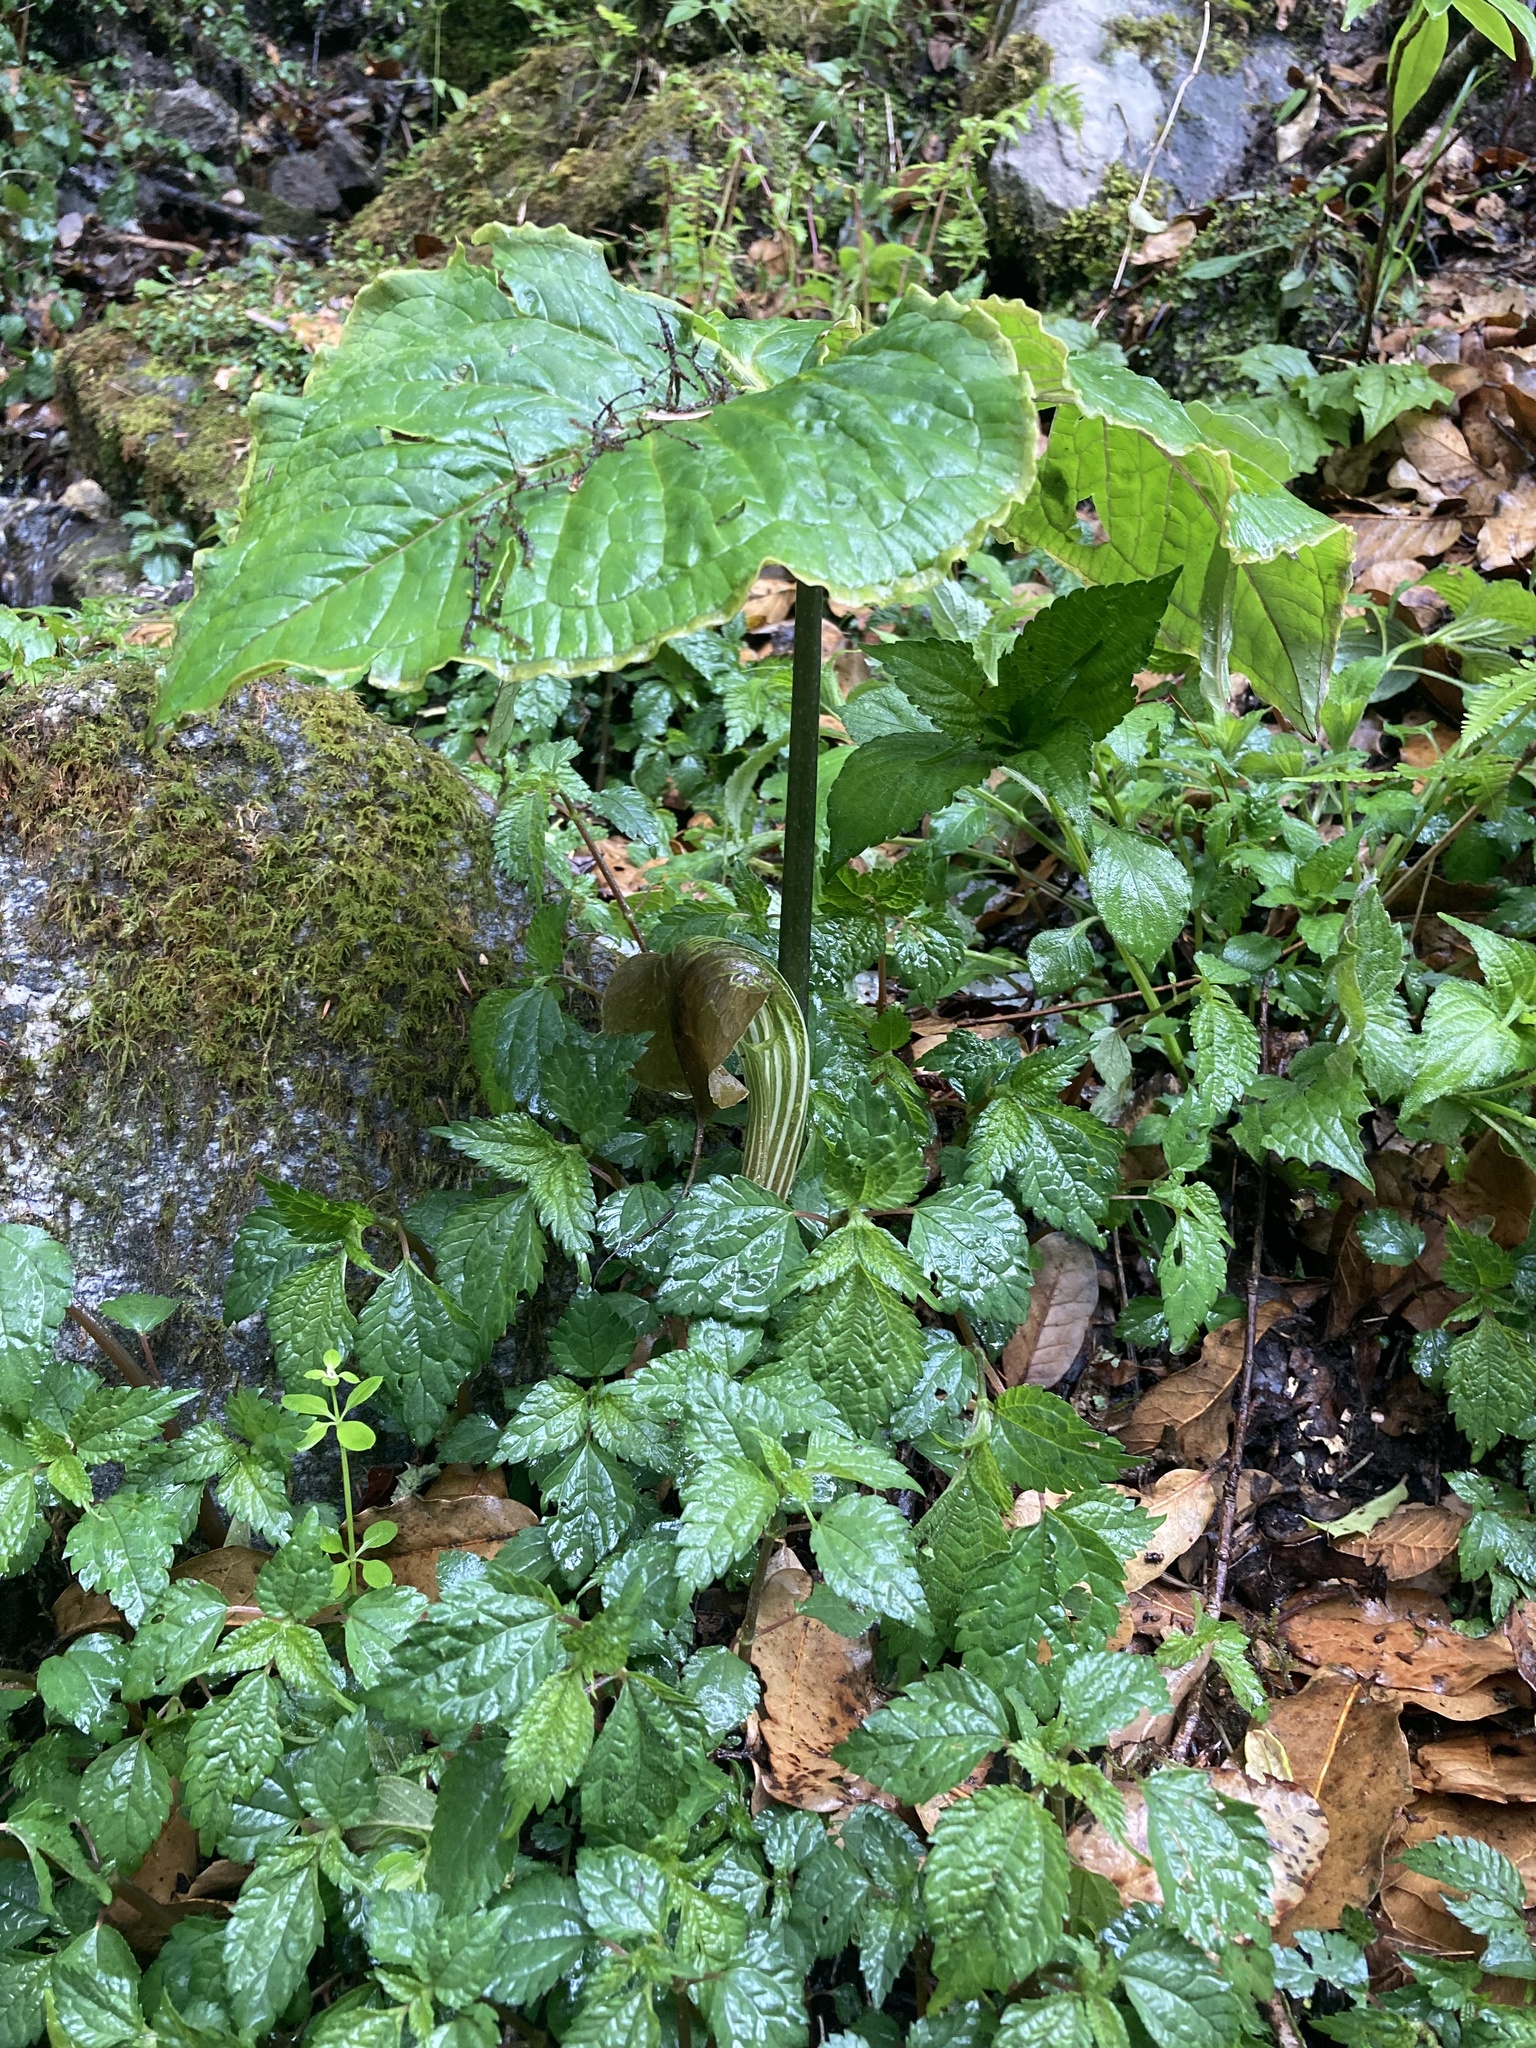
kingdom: Plantae
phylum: Tracheophyta
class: Liliopsida
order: Alismatales
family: Araceae
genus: Arisaema
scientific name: Arisaema utile
